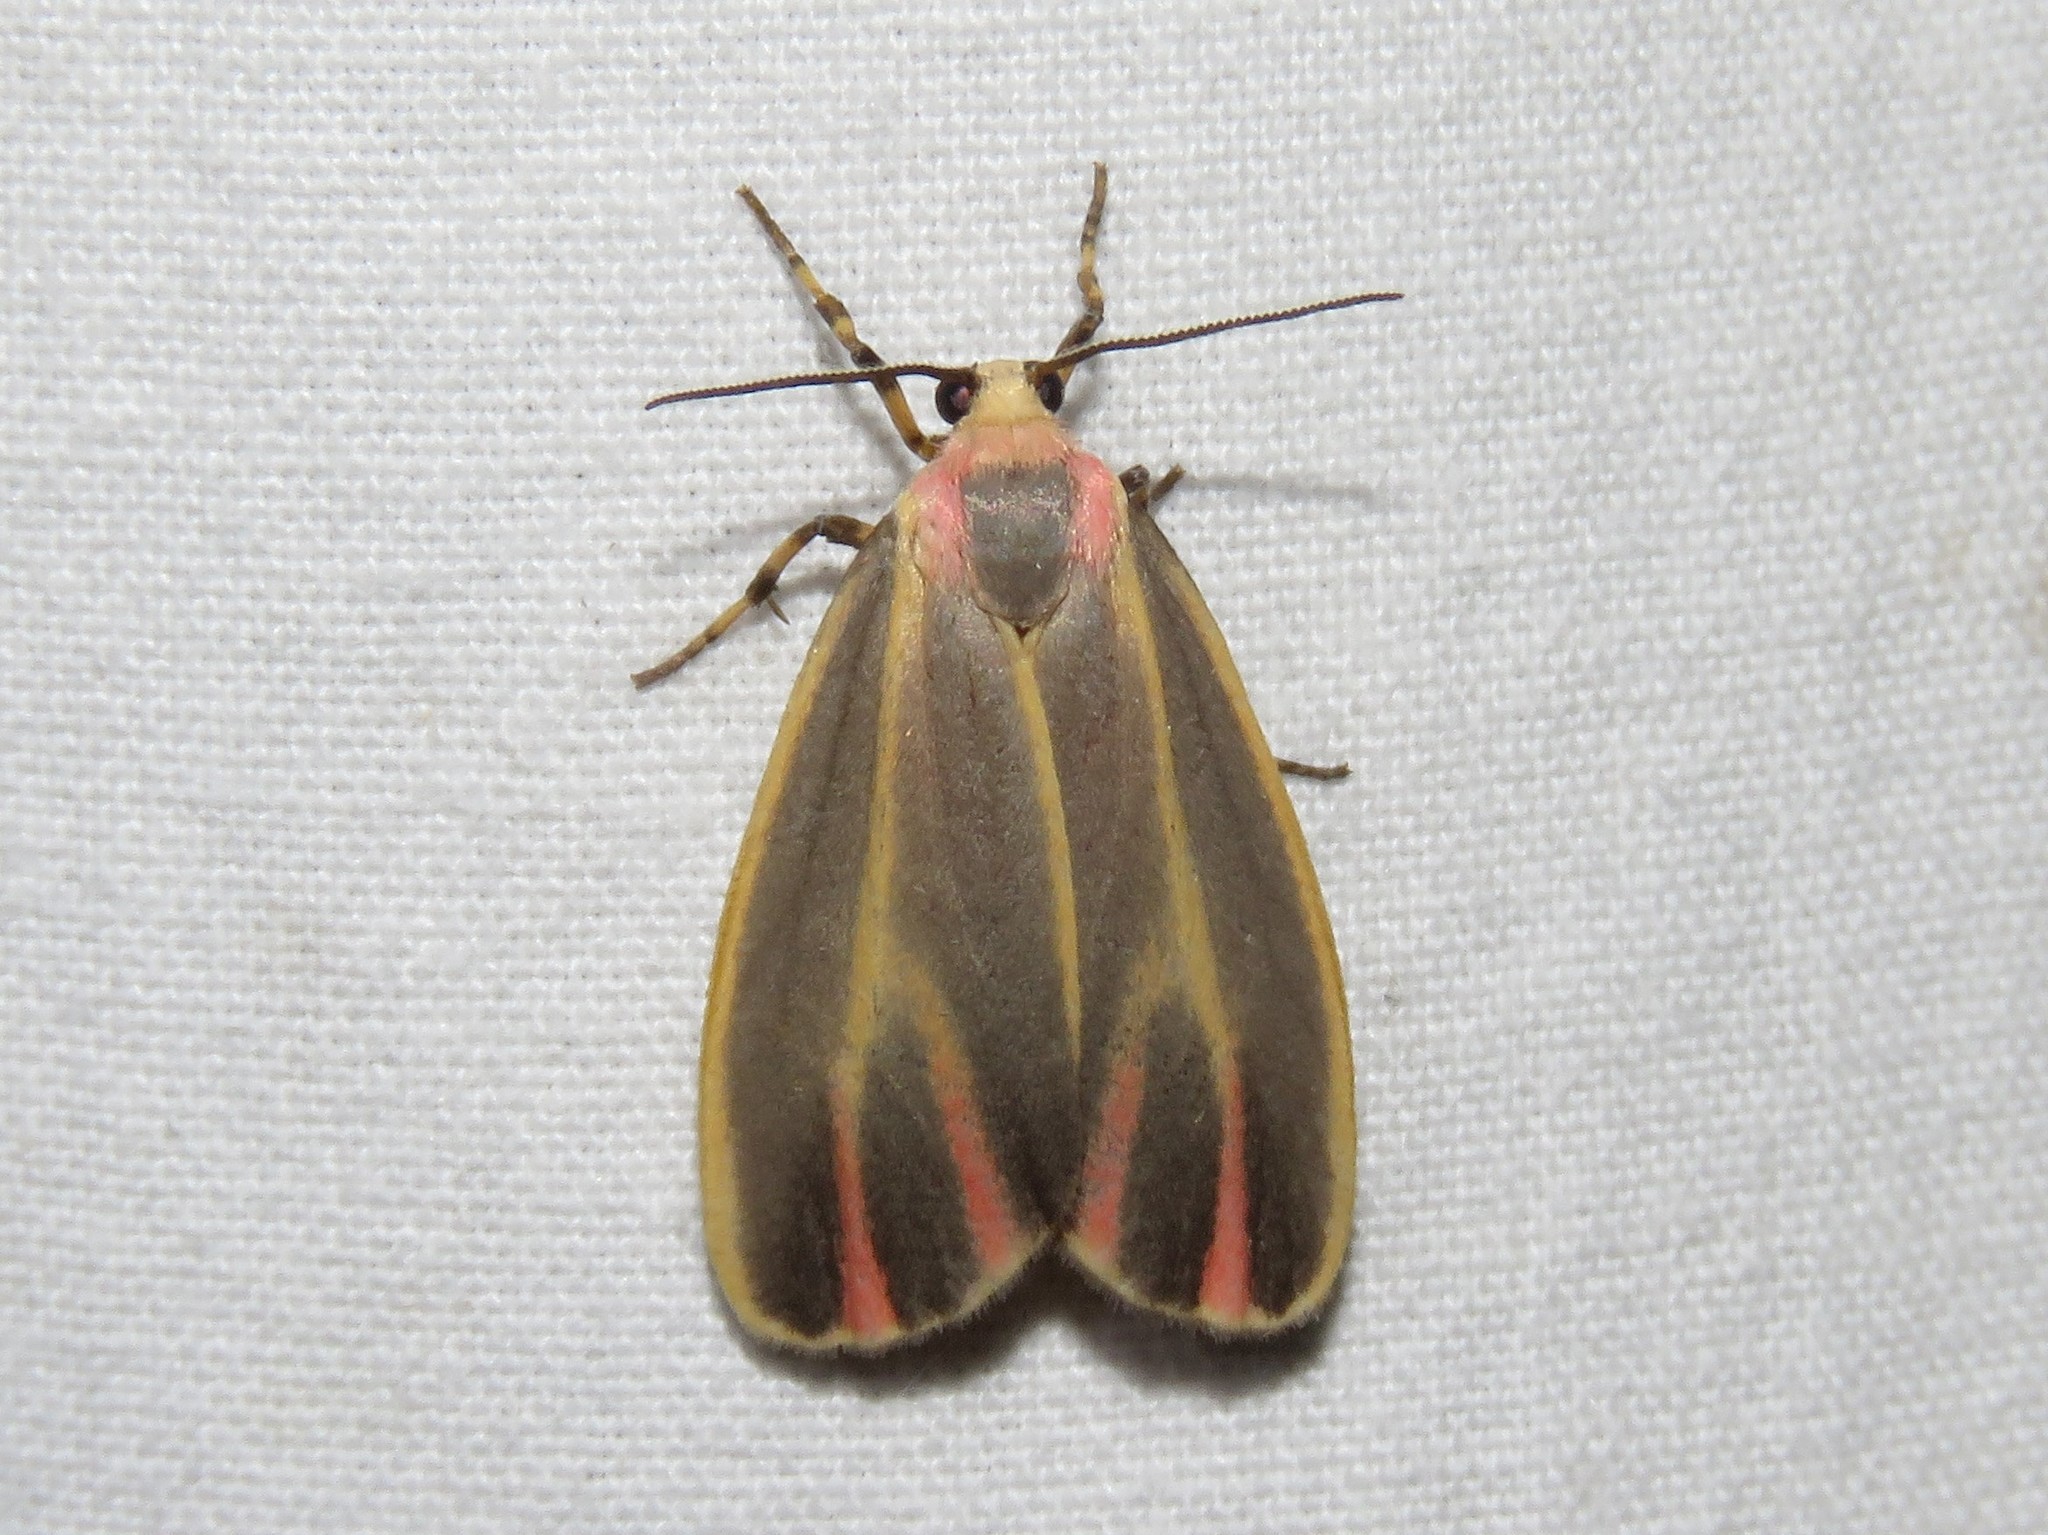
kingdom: Animalia
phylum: Arthropoda
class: Insecta
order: Lepidoptera
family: Erebidae
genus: Hypoprepia
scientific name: Hypoprepia fucosa
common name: Painted lichen moth
